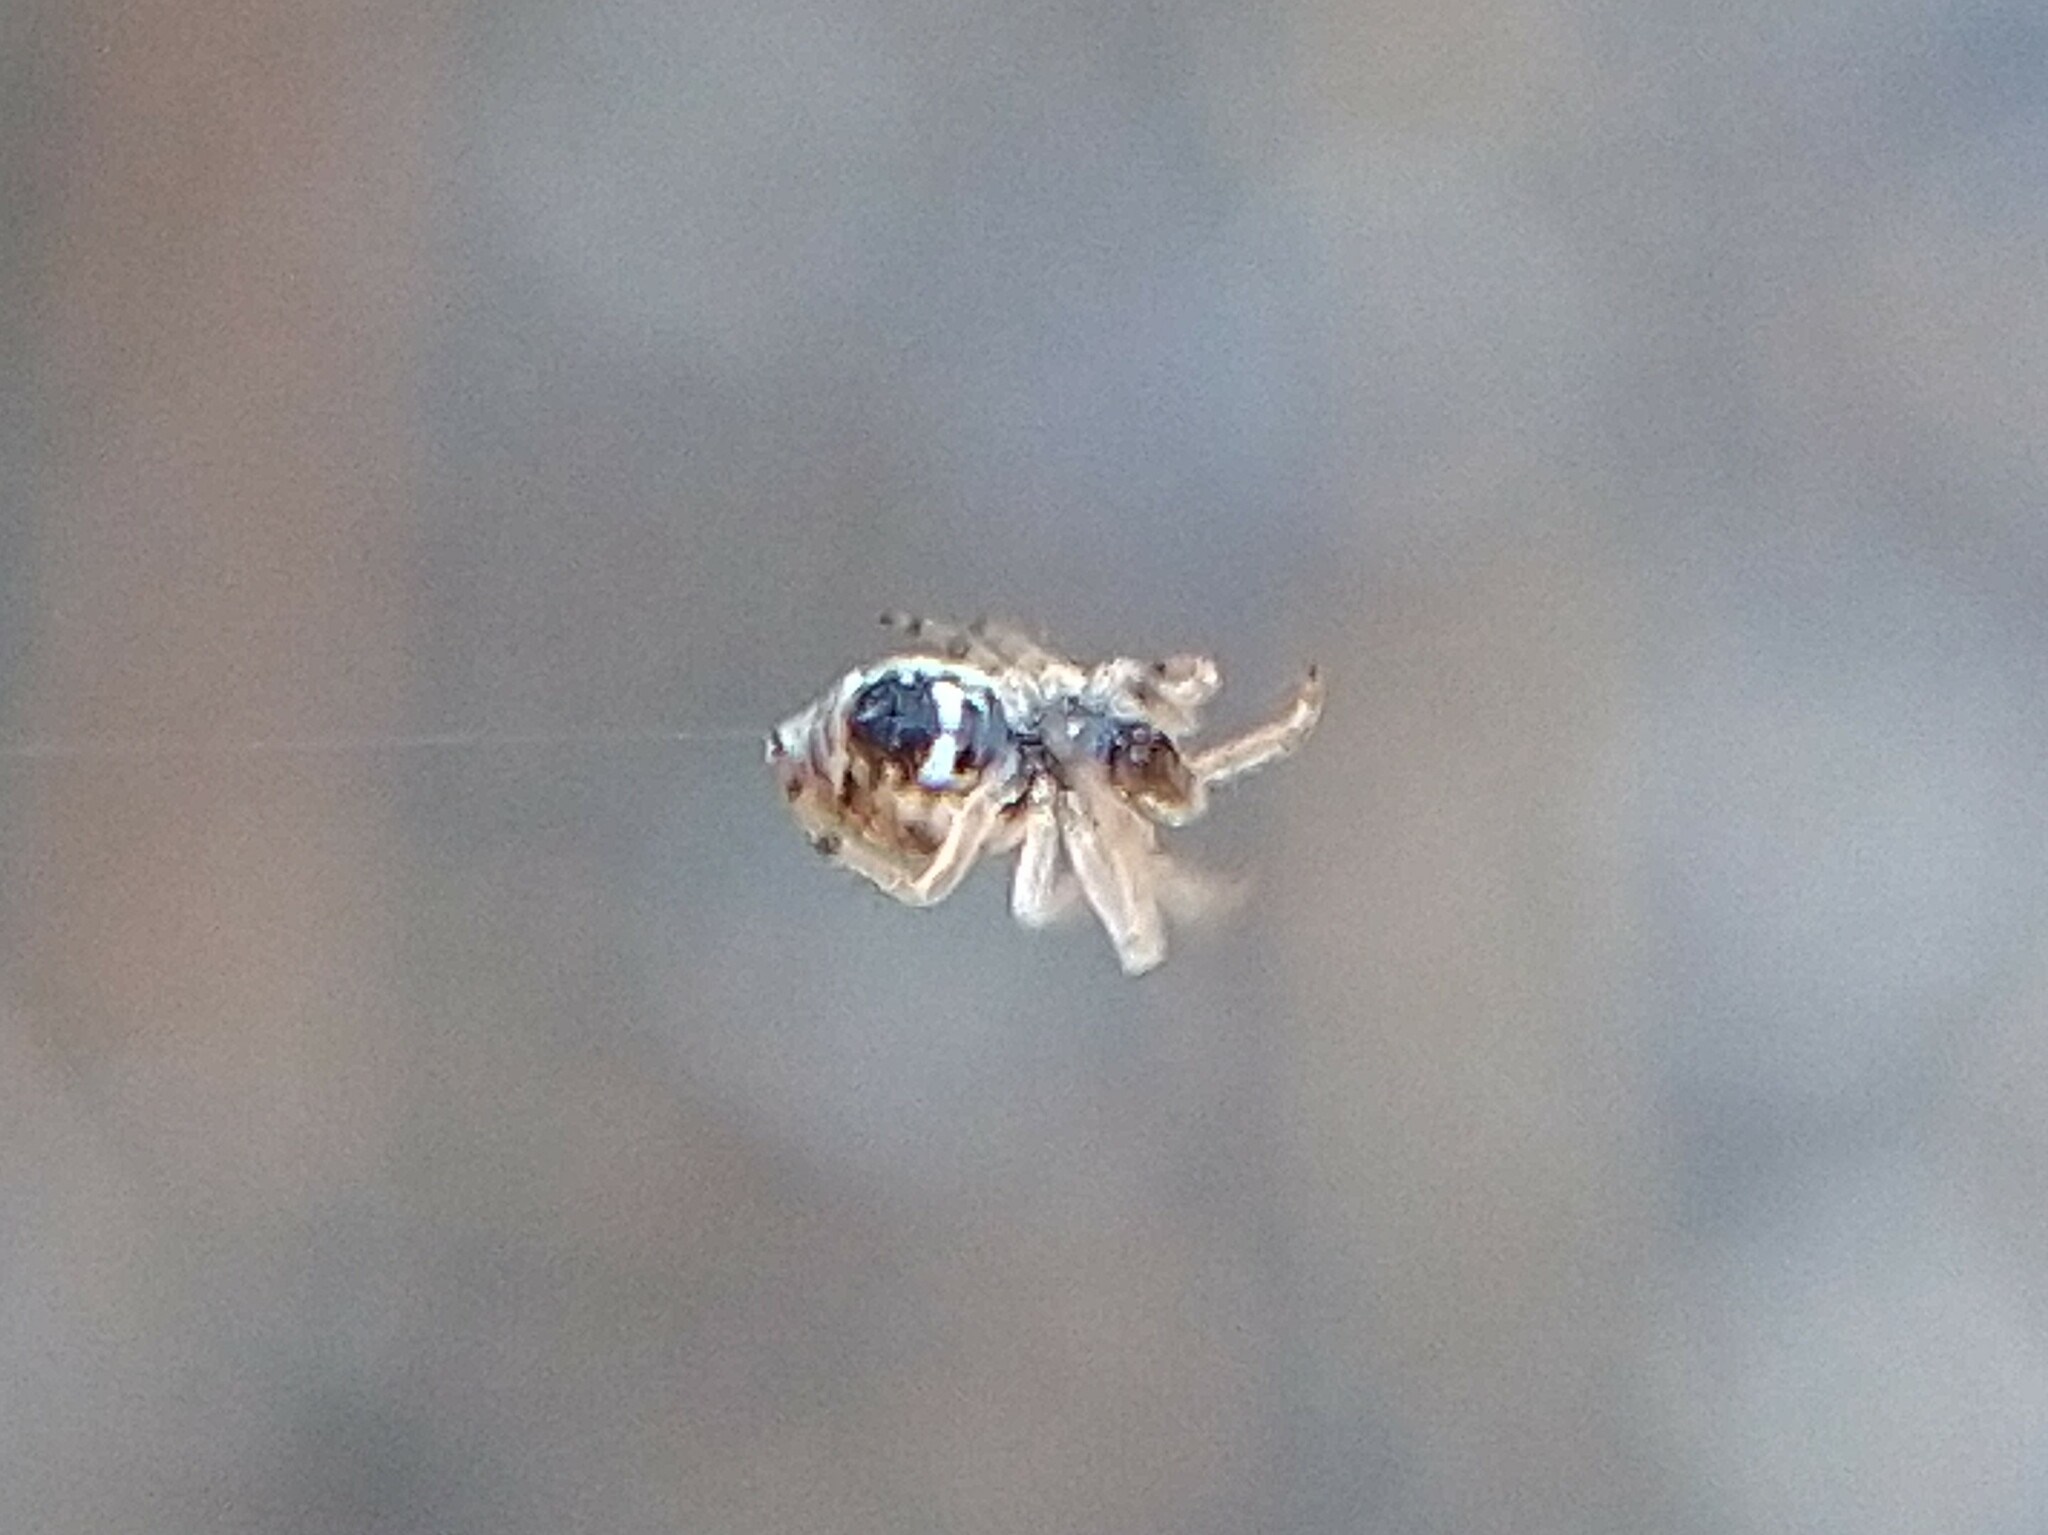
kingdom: Animalia
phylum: Arthropoda
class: Arachnida
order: Araneae
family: Araneidae
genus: Cyclosa
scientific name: Cyclosa conica
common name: Conical trashline orbweaver
